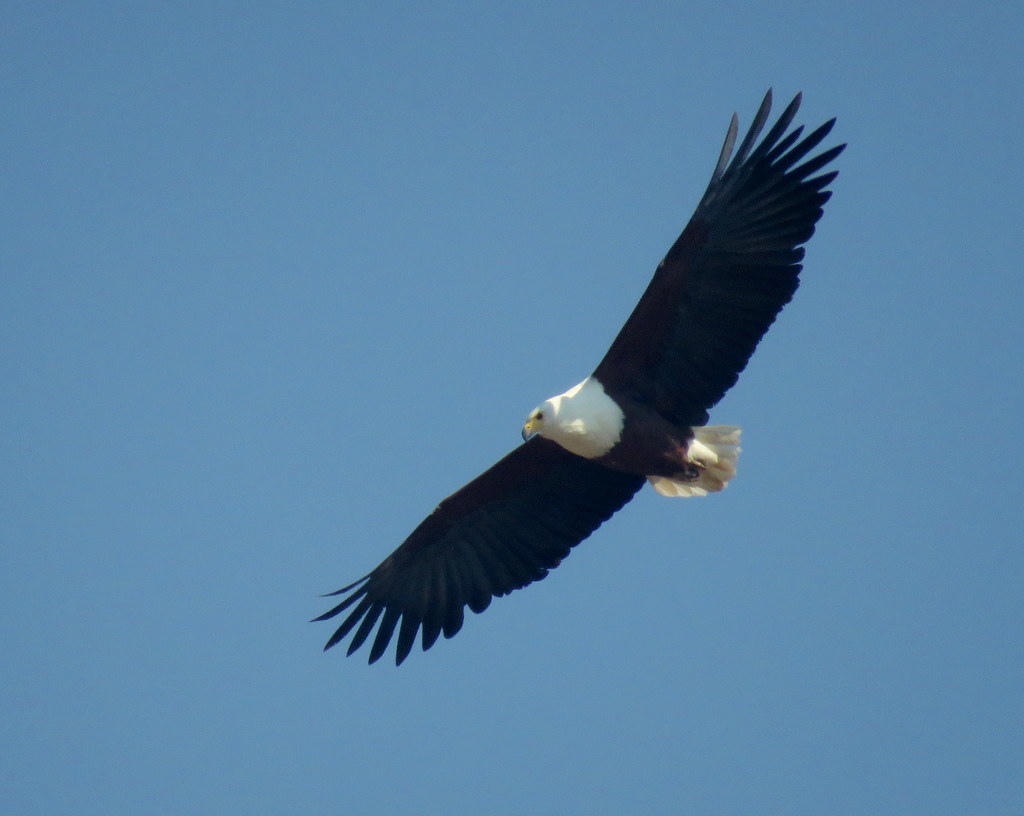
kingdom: Animalia
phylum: Chordata
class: Aves
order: Accipitriformes
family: Accipitridae
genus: Haliaeetus
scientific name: Haliaeetus vocifer
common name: African fish eagle
